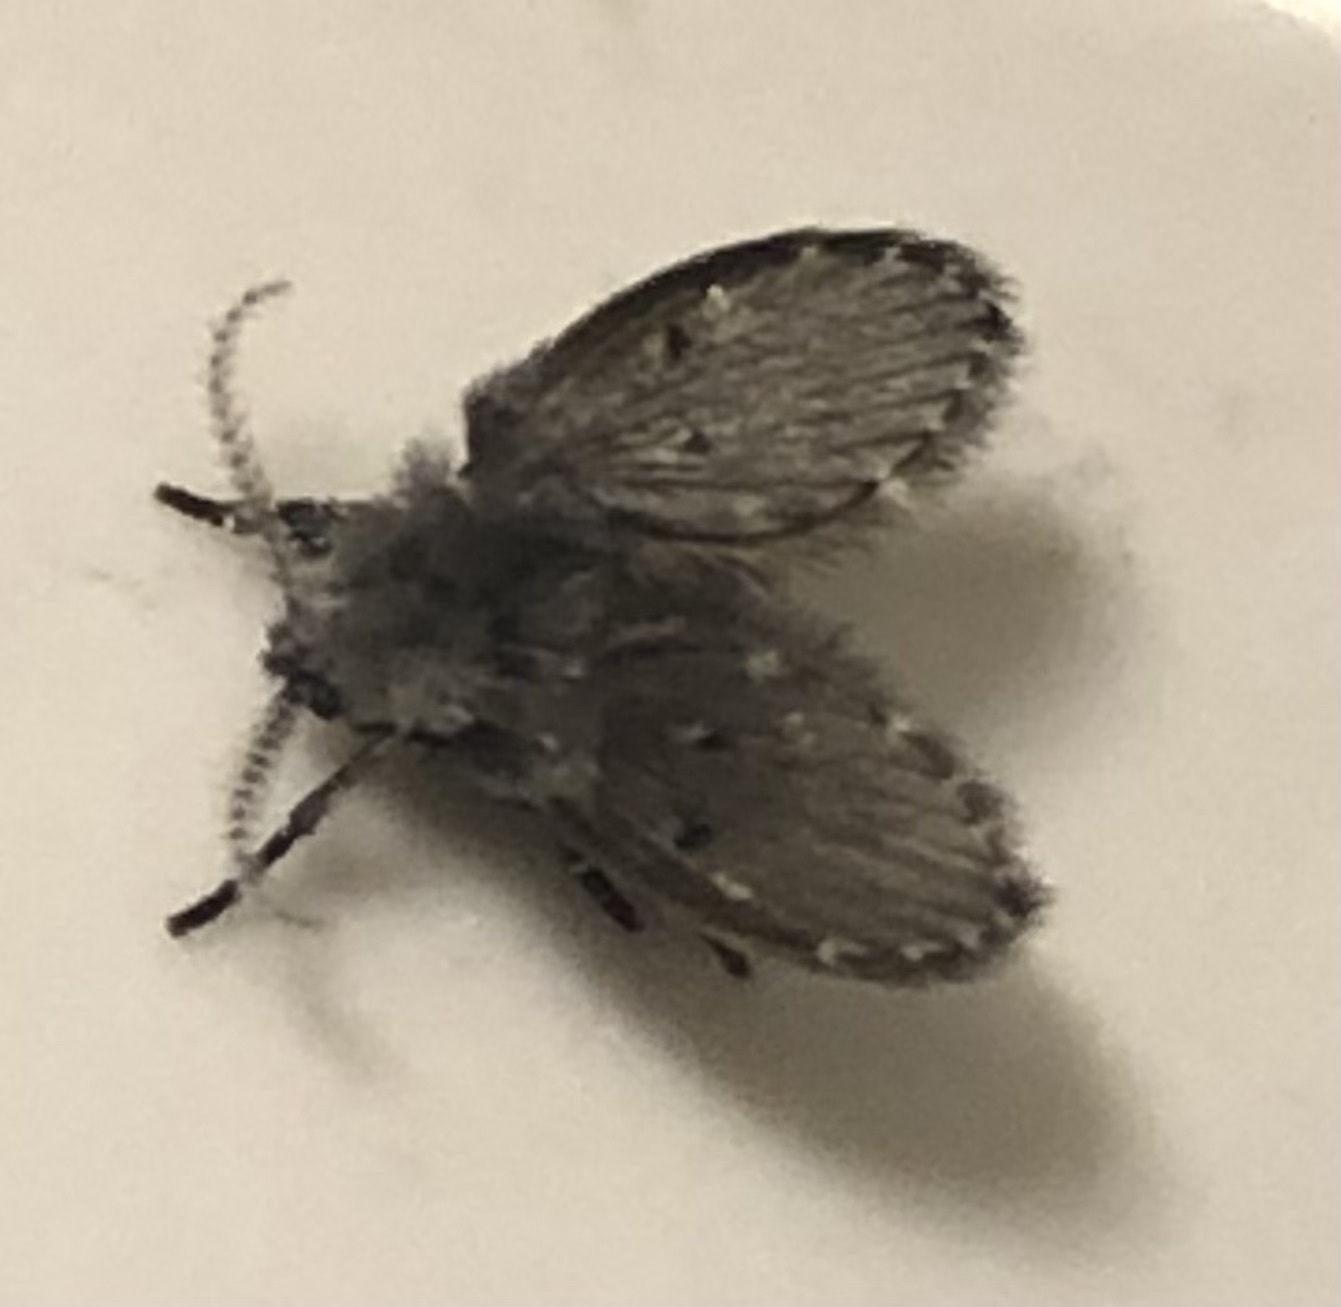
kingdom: Animalia
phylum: Arthropoda
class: Insecta
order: Diptera
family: Psychodidae
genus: Clogmia
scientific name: Clogmia albipunctatus
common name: White-spotted moth fly
